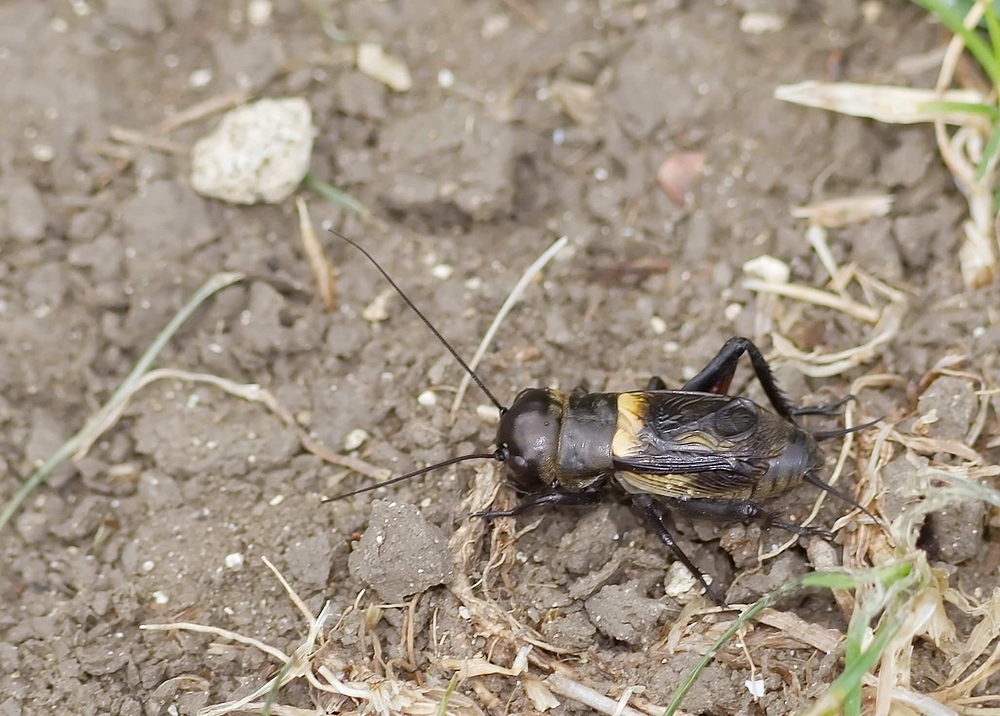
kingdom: Animalia
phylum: Arthropoda
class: Insecta
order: Orthoptera
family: Gryllidae
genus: Gryllus
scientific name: Gryllus campestris
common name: Field cricket
